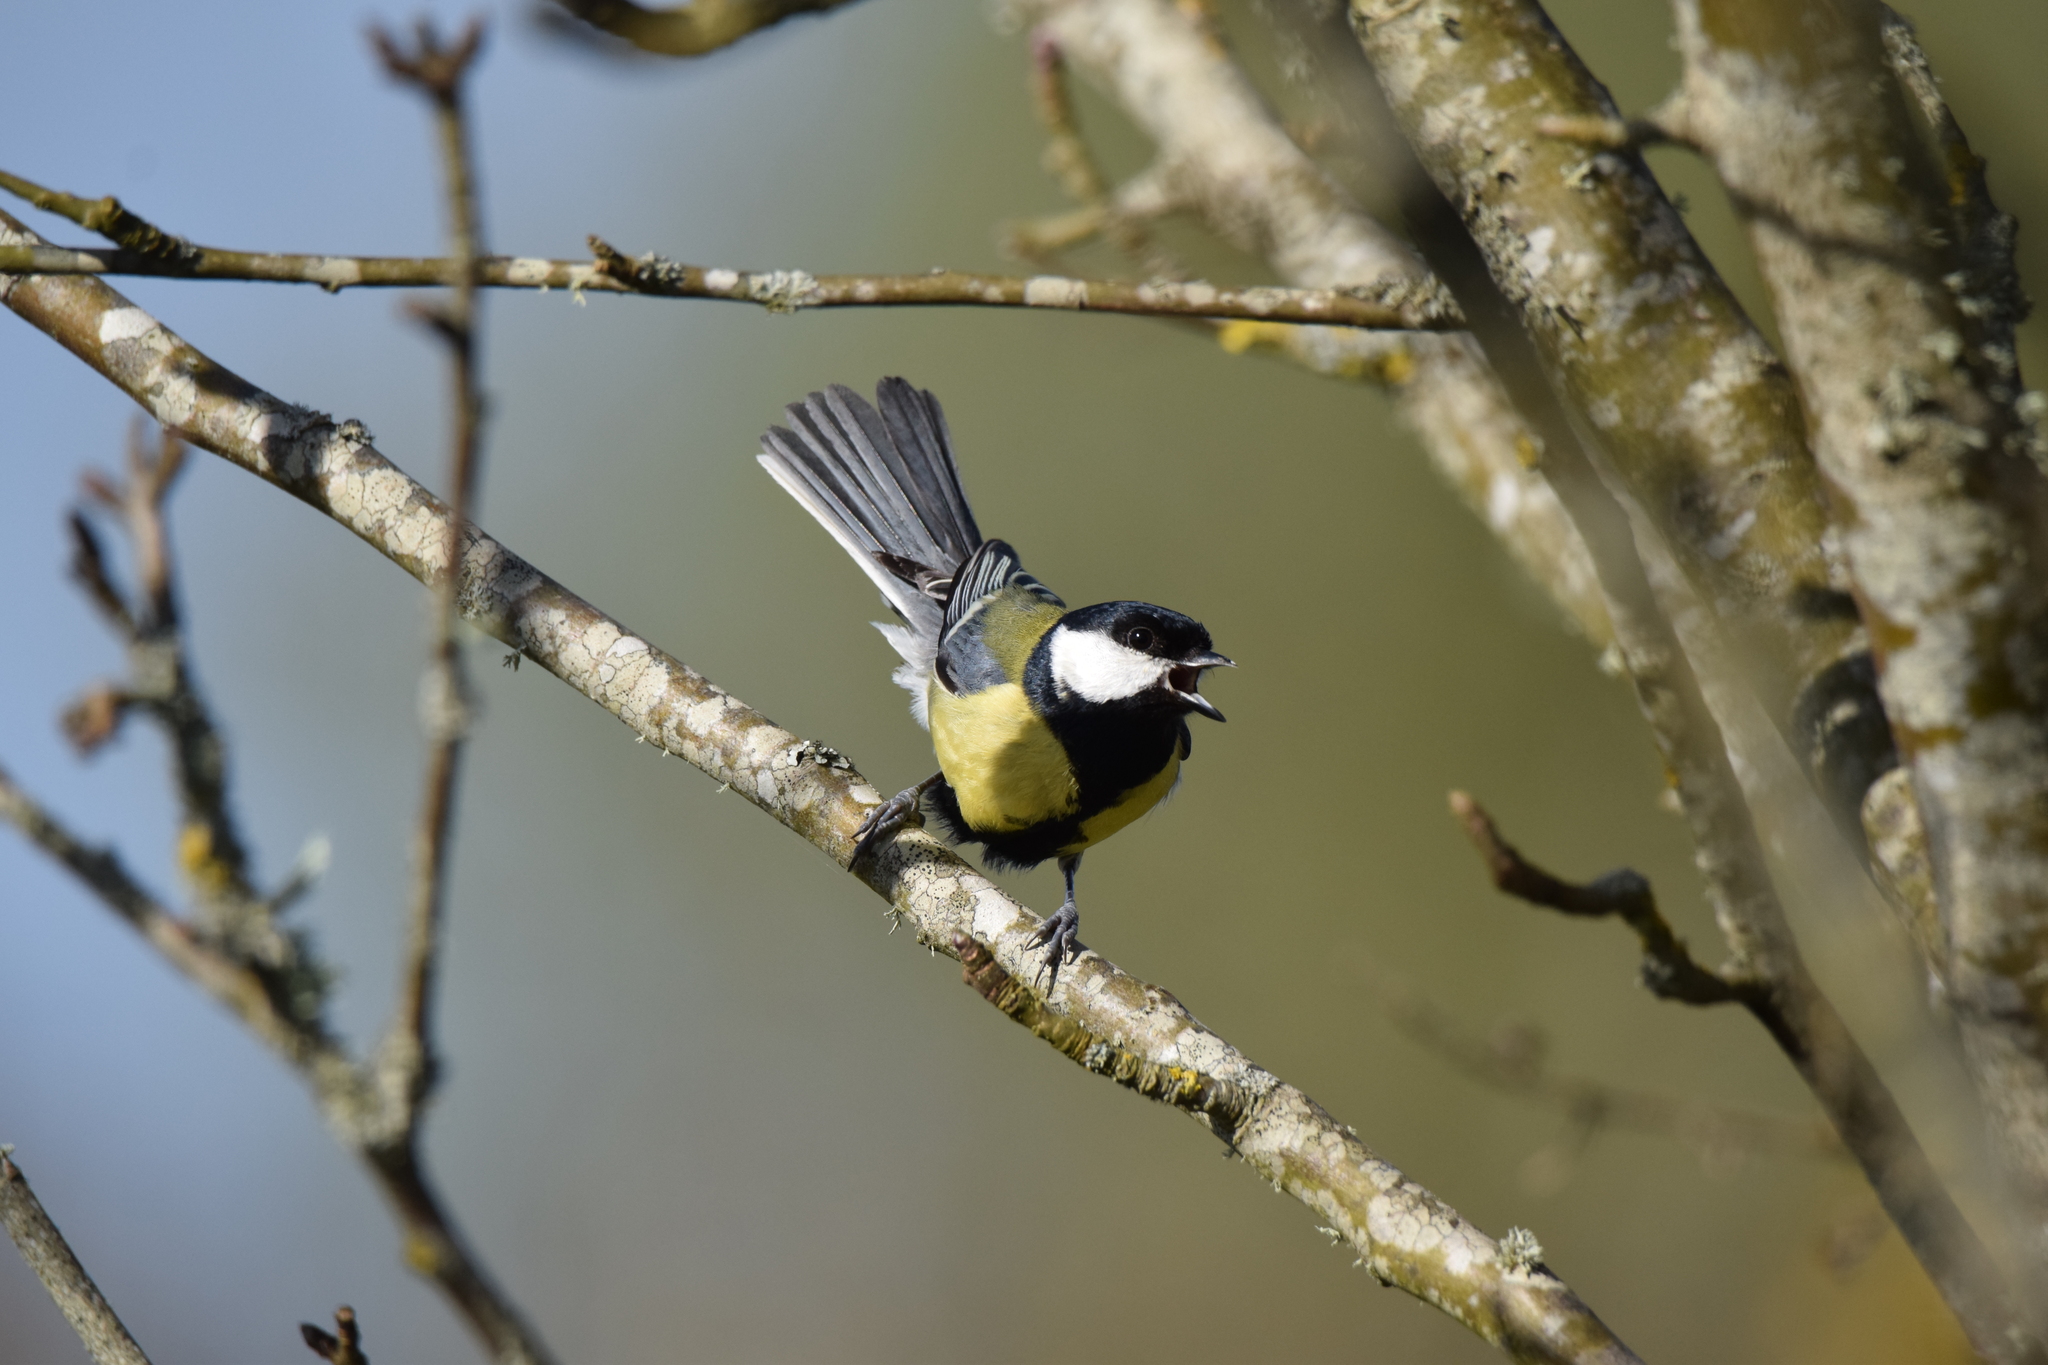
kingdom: Animalia
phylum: Chordata
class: Aves
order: Passeriformes
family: Paridae
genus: Parus
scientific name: Parus major
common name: Great tit
